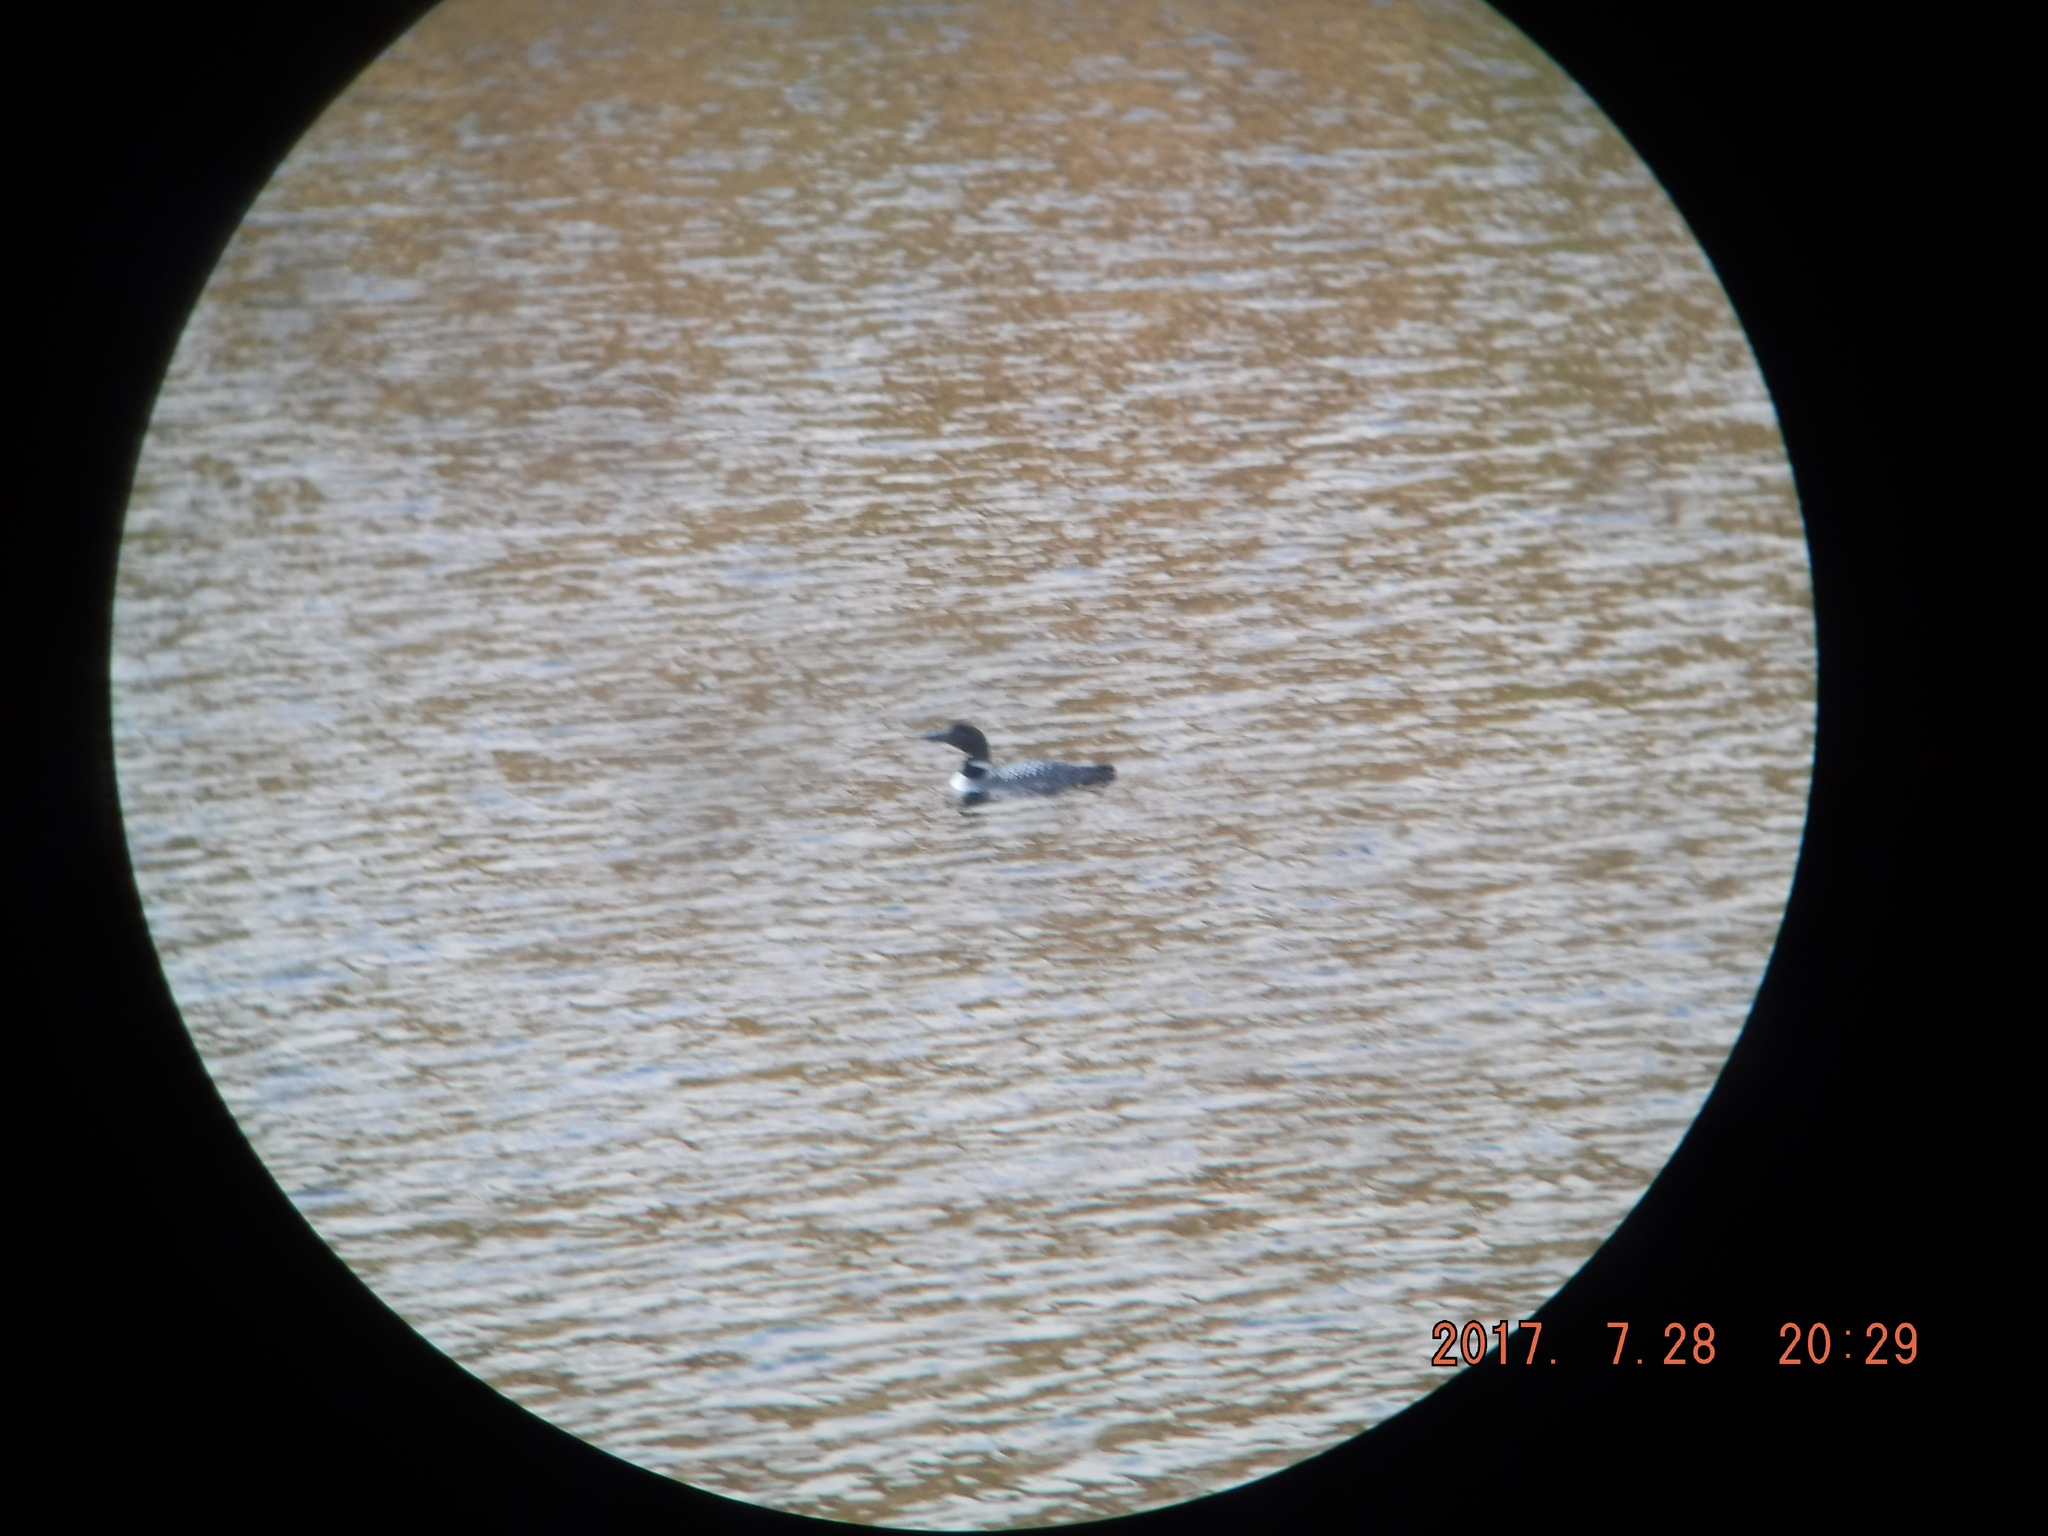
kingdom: Animalia
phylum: Chordata
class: Aves
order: Gaviiformes
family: Gaviidae
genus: Gavia
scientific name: Gavia immer
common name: Common loon
